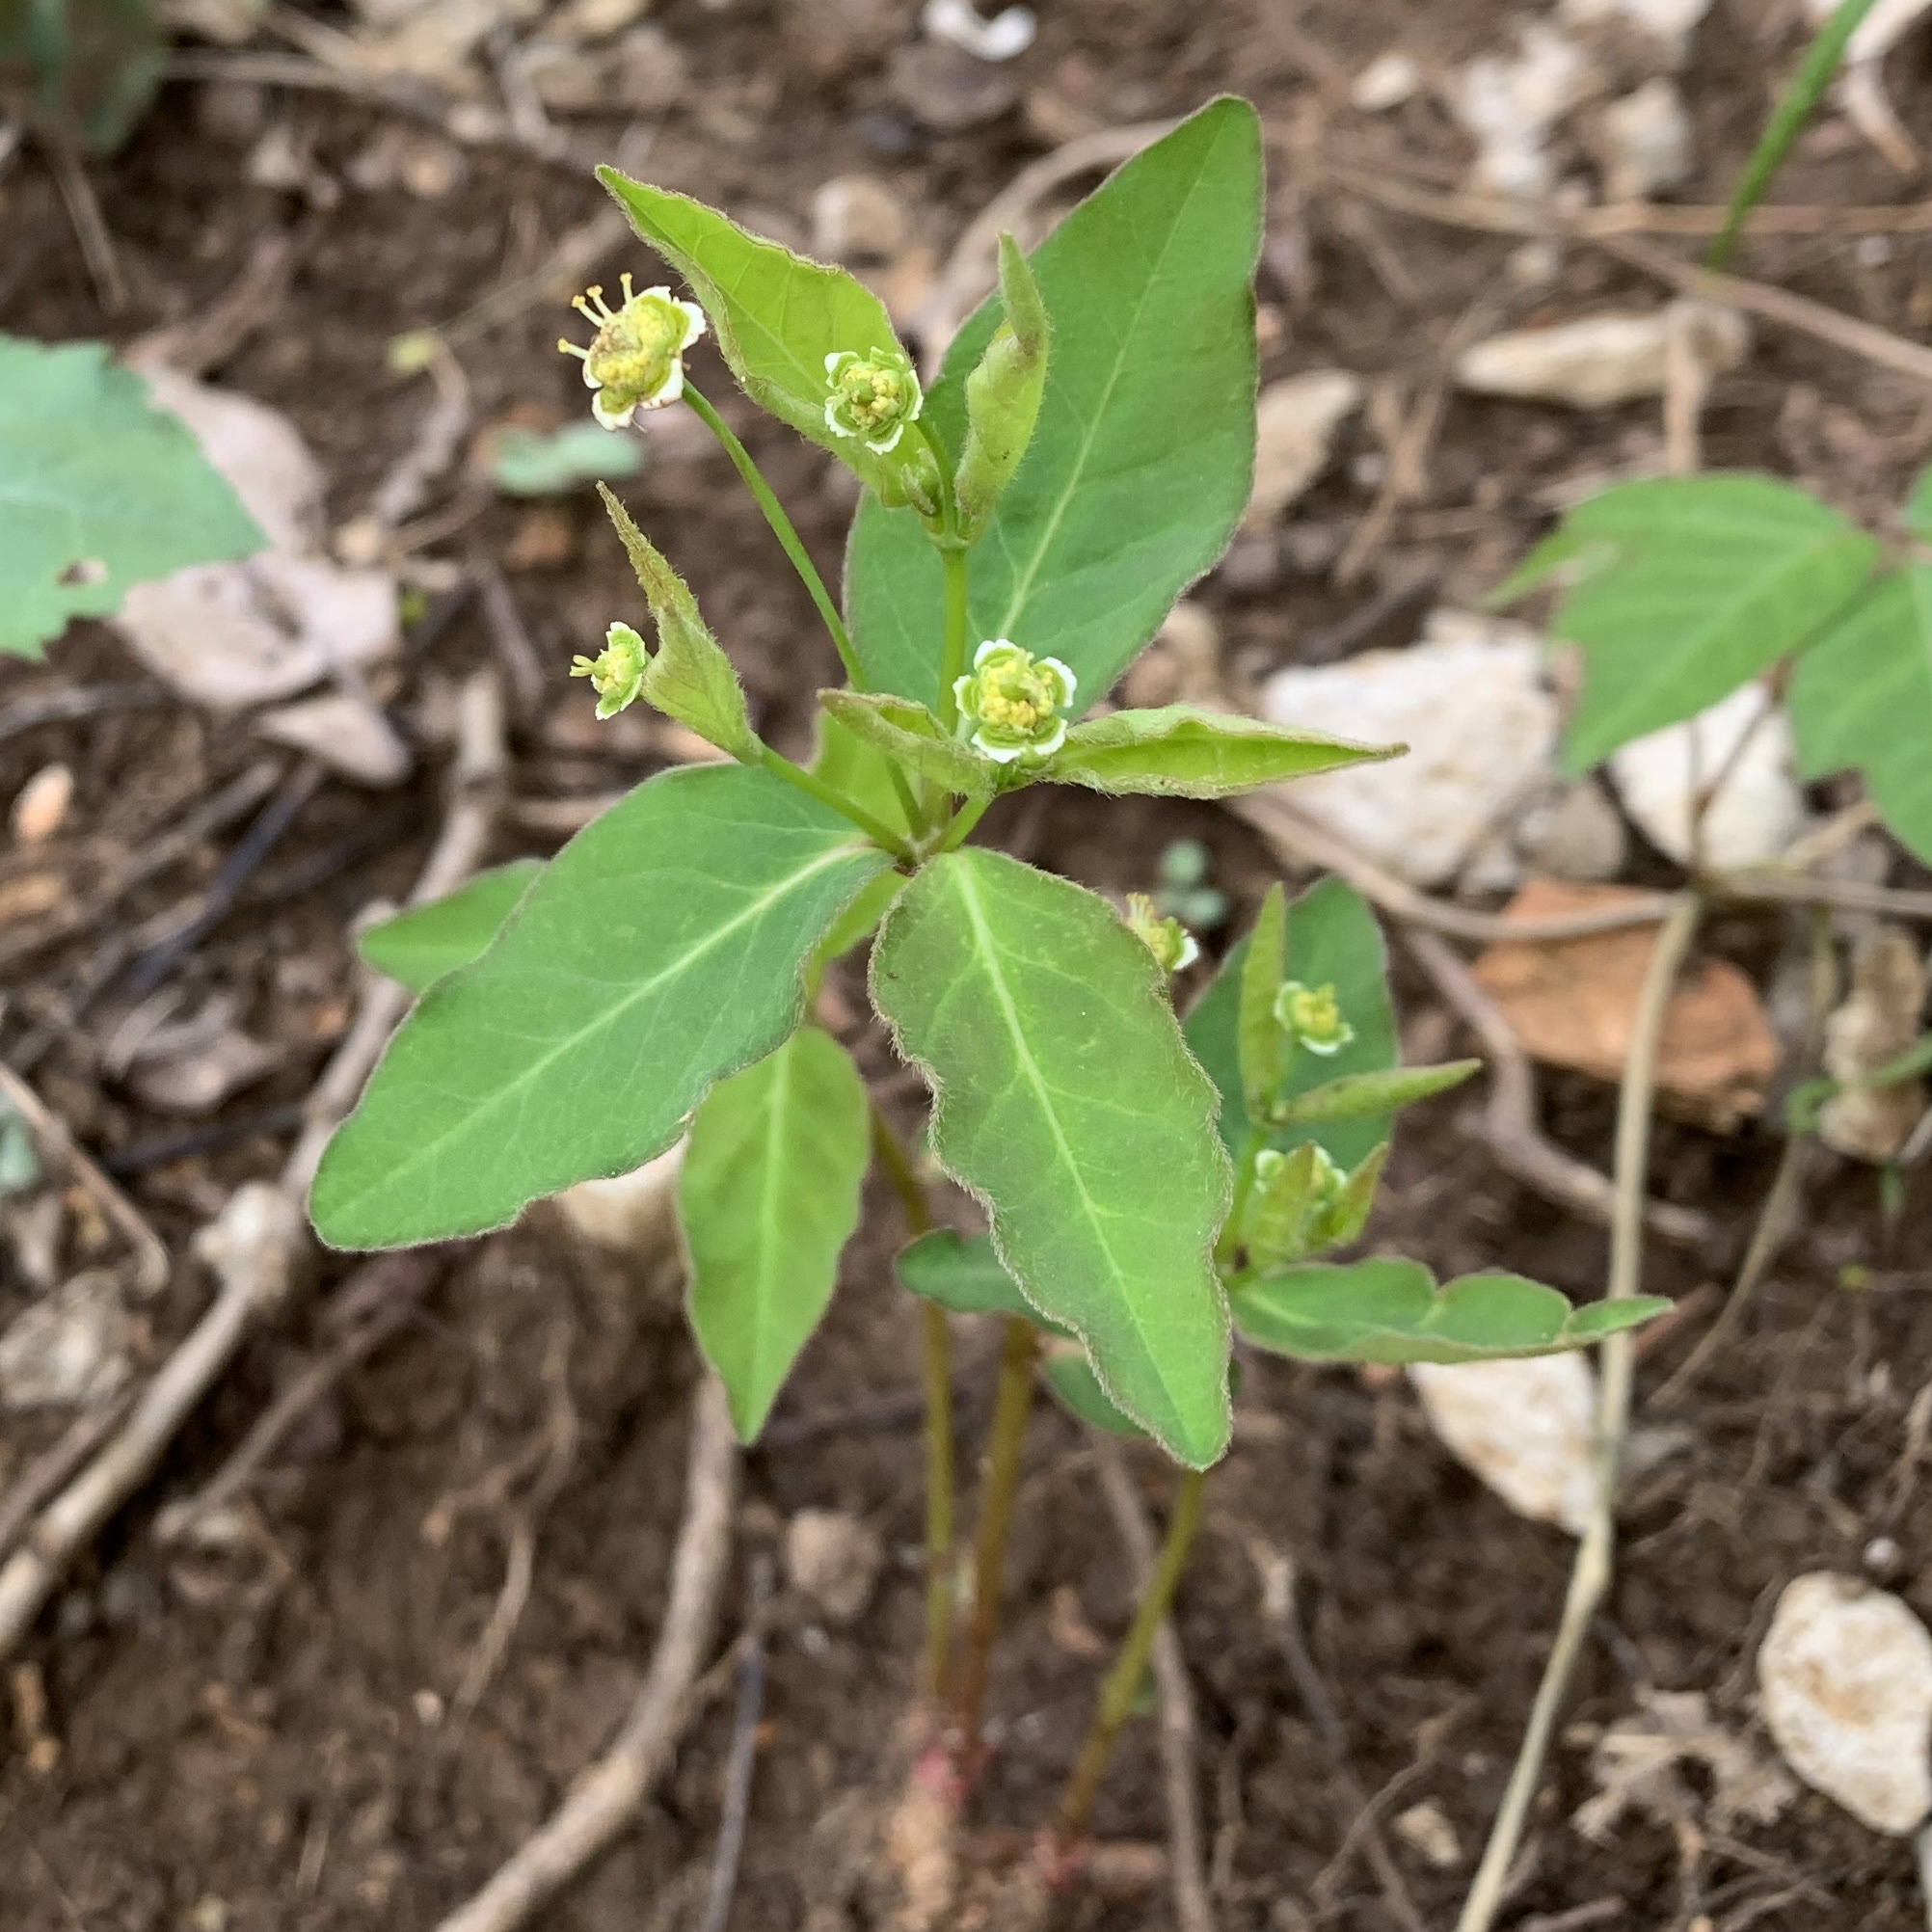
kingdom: Plantae
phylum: Tracheophyta
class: Magnoliopsida
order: Malpighiales
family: Euphorbiaceae
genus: Euphorbia
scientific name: Euphorbia mercurialina
